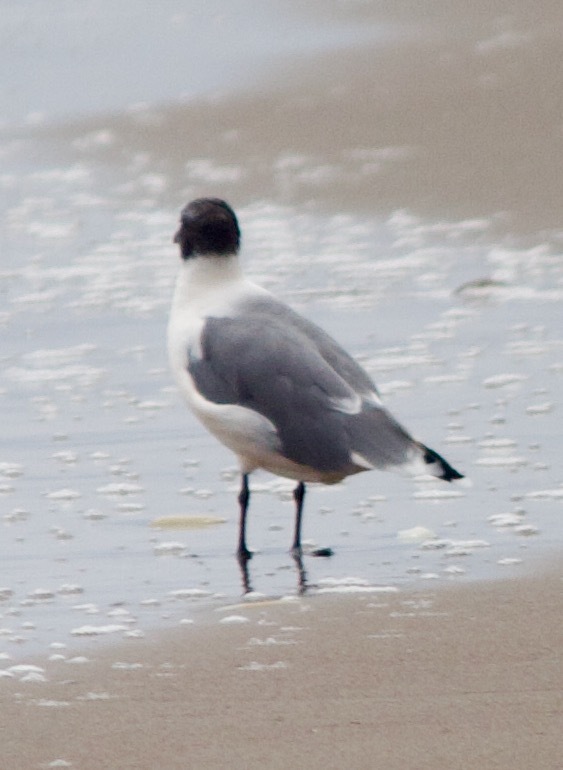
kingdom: Animalia
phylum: Chordata
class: Aves
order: Charadriiformes
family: Laridae
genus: Leucophaeus
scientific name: Leucophaeus pipixcan
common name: Franklin's gull
